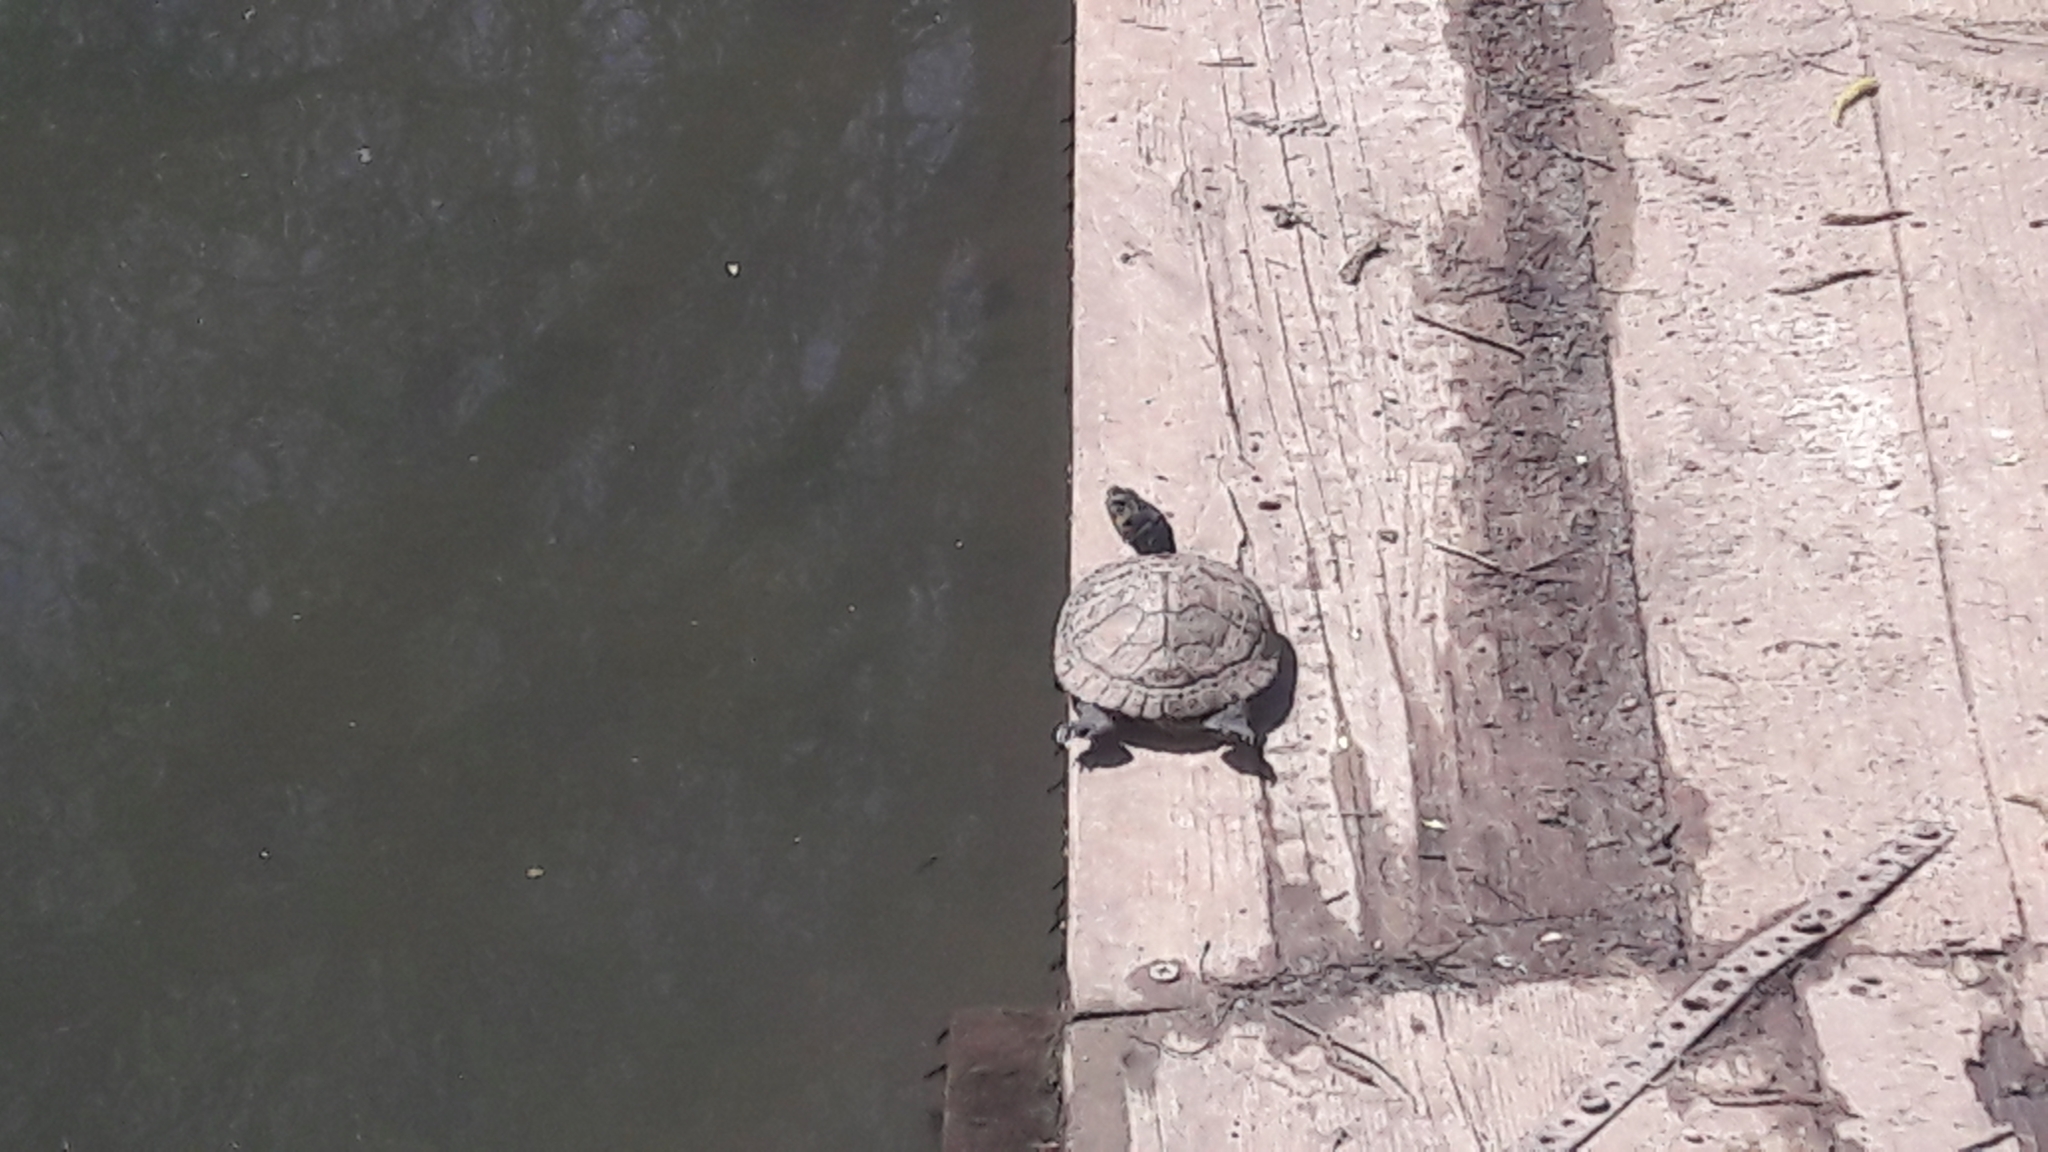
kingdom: Animalia
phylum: Chordata
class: Testudines
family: Emydidae
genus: Trachemys
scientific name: Trachemys scripta
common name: Slider
